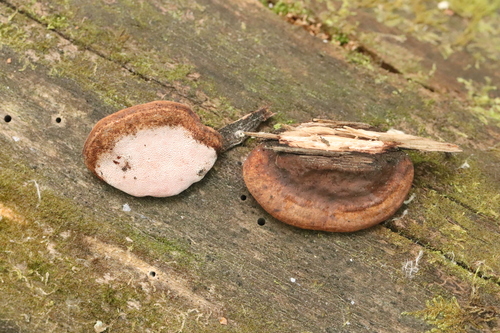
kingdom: Fungi
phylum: Basidiomycota
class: Agaricomycetes
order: Polyporales
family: Fomitopsidaceae
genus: Rhodofomes
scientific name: Rhodofomes roseus
